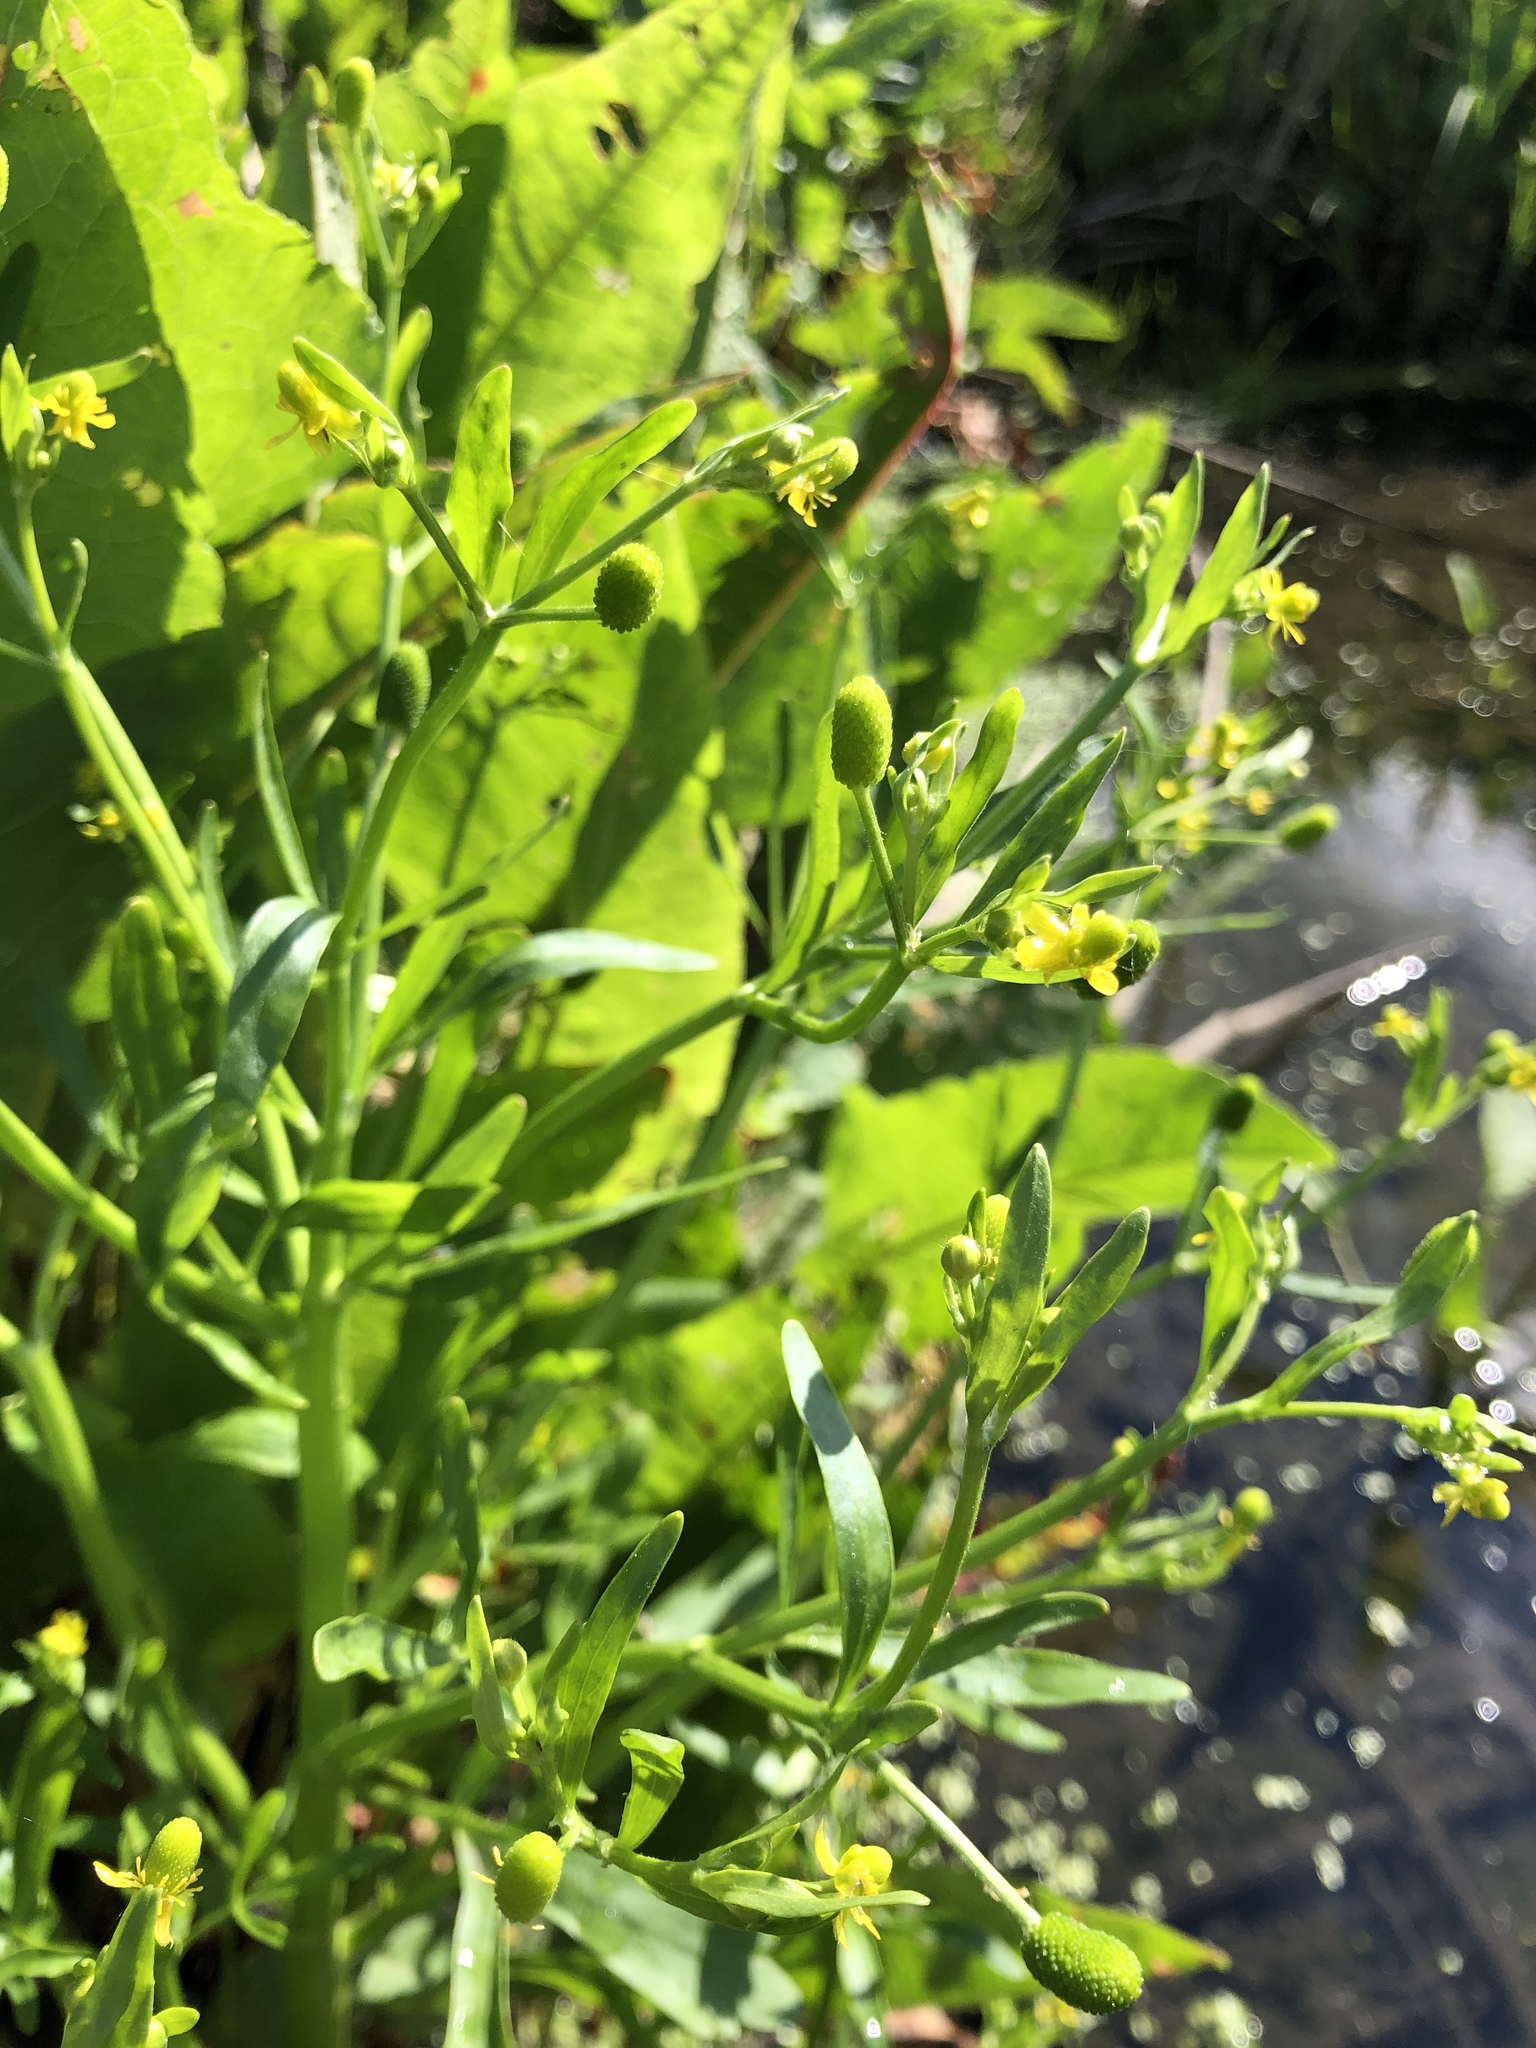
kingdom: Plantae
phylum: Tracheophyta
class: Magnoliopsida
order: Ranunculales
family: Ranunculaceae
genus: Ranunculus
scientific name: Ranunculus sceleratus
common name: Celery-leaved buttercup
